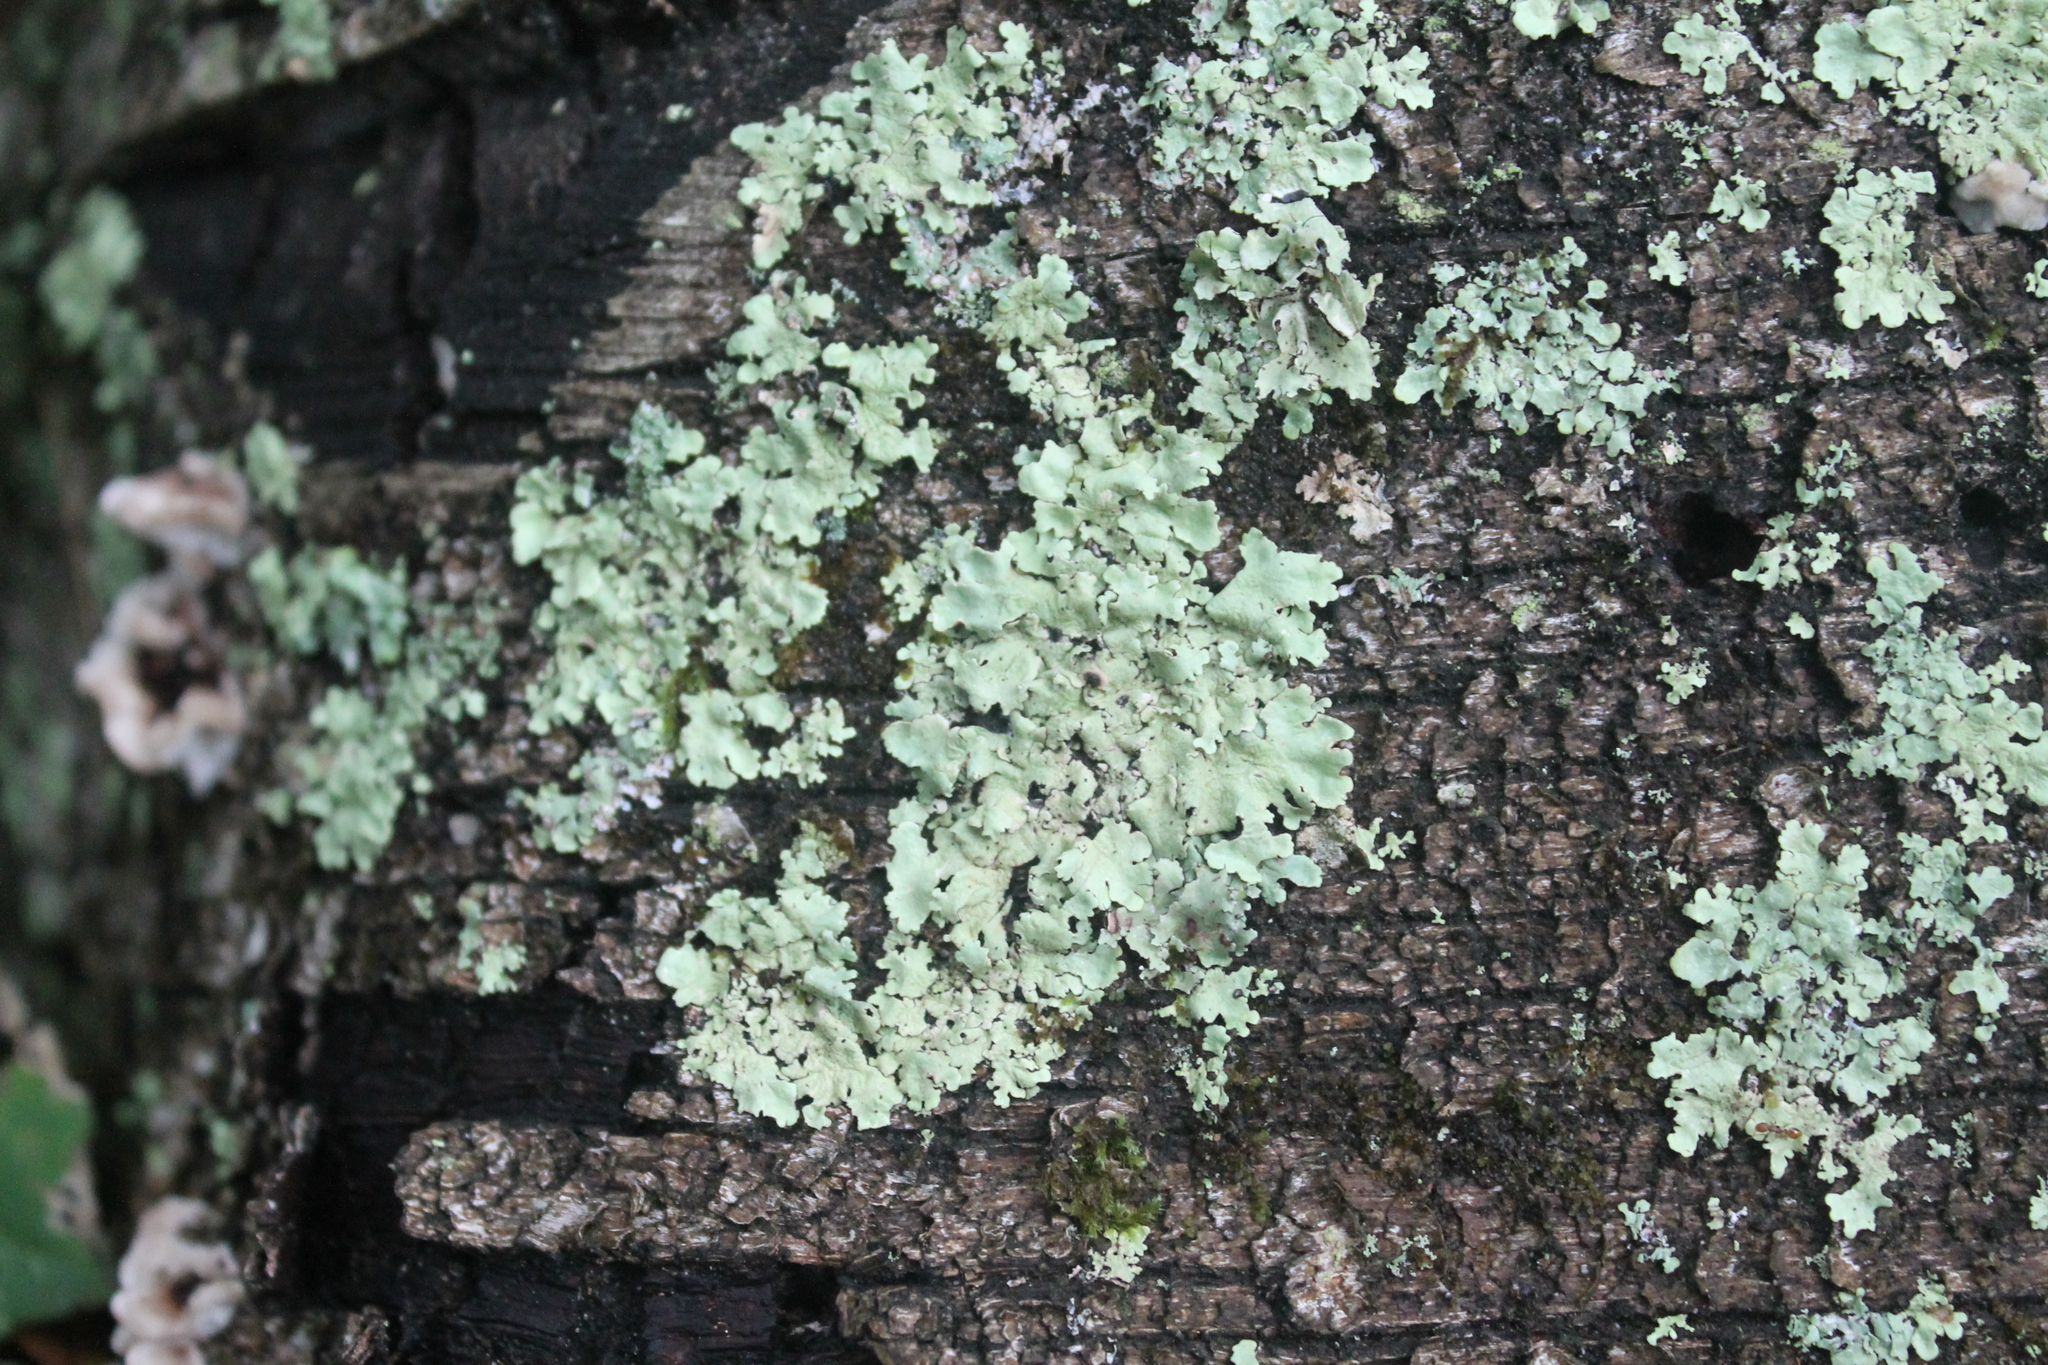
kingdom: Fungi
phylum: Ascomycota
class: Lecanoromycetes
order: Lecanorales
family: Parmeliaceae
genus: Flavopunctelia
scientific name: Flavopunctelia flaventior
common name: Speckled greenshield
